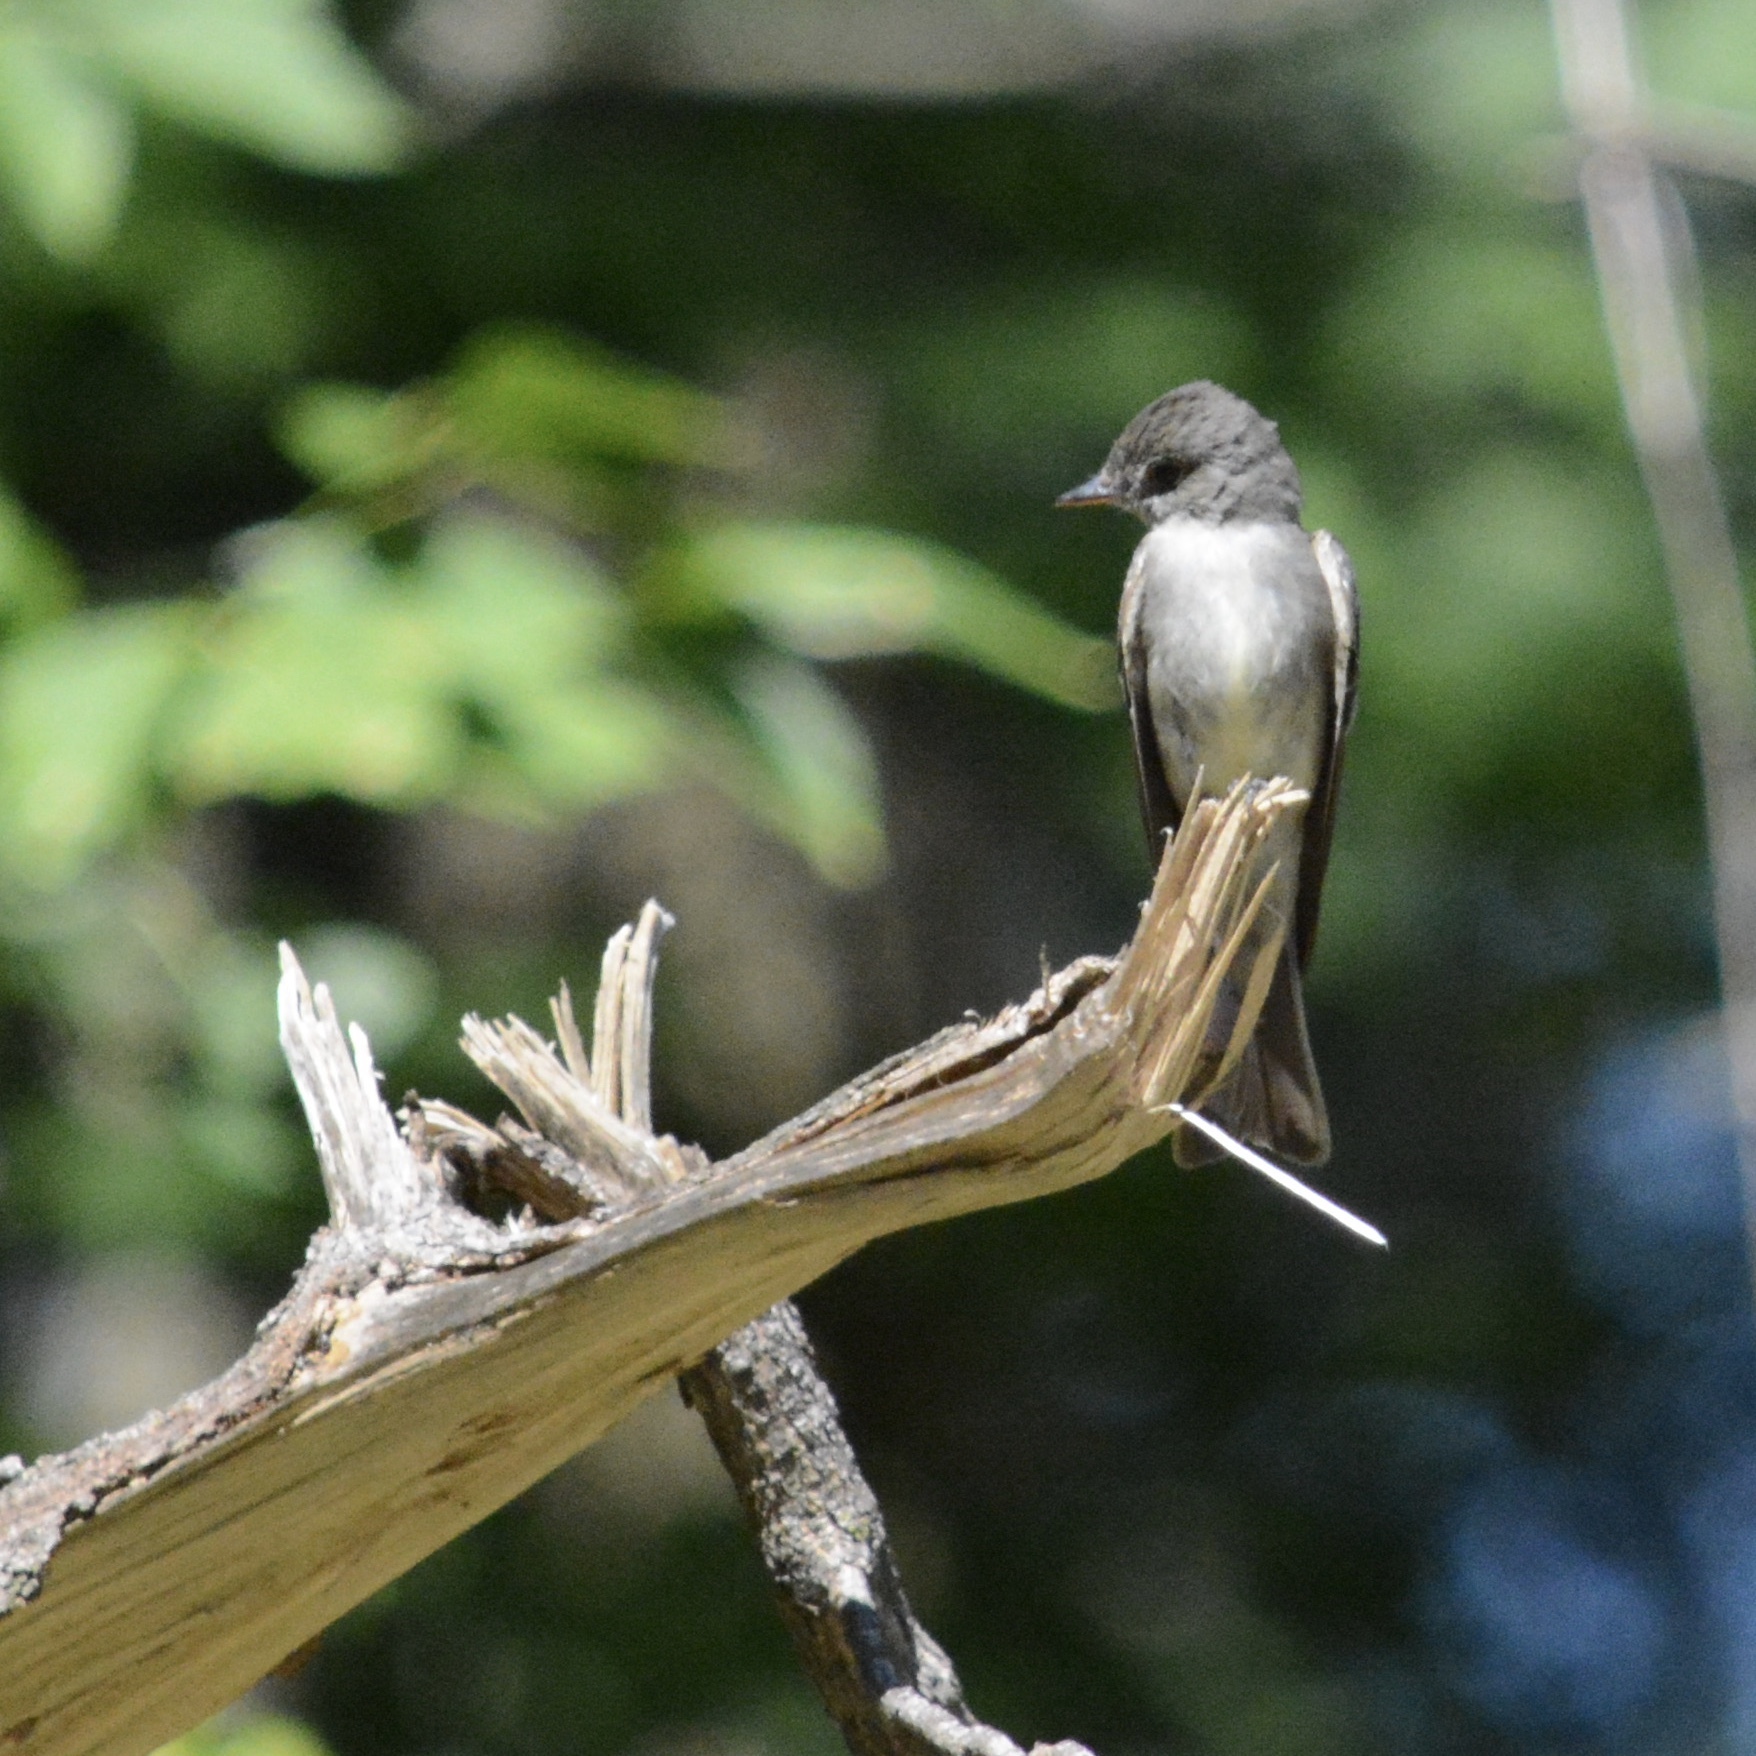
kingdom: Animalia
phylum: Chordata
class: Aves
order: Passeriformes
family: Tyrannidae
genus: Contopus
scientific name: Contopus virens
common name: Eastern wood-pewee
